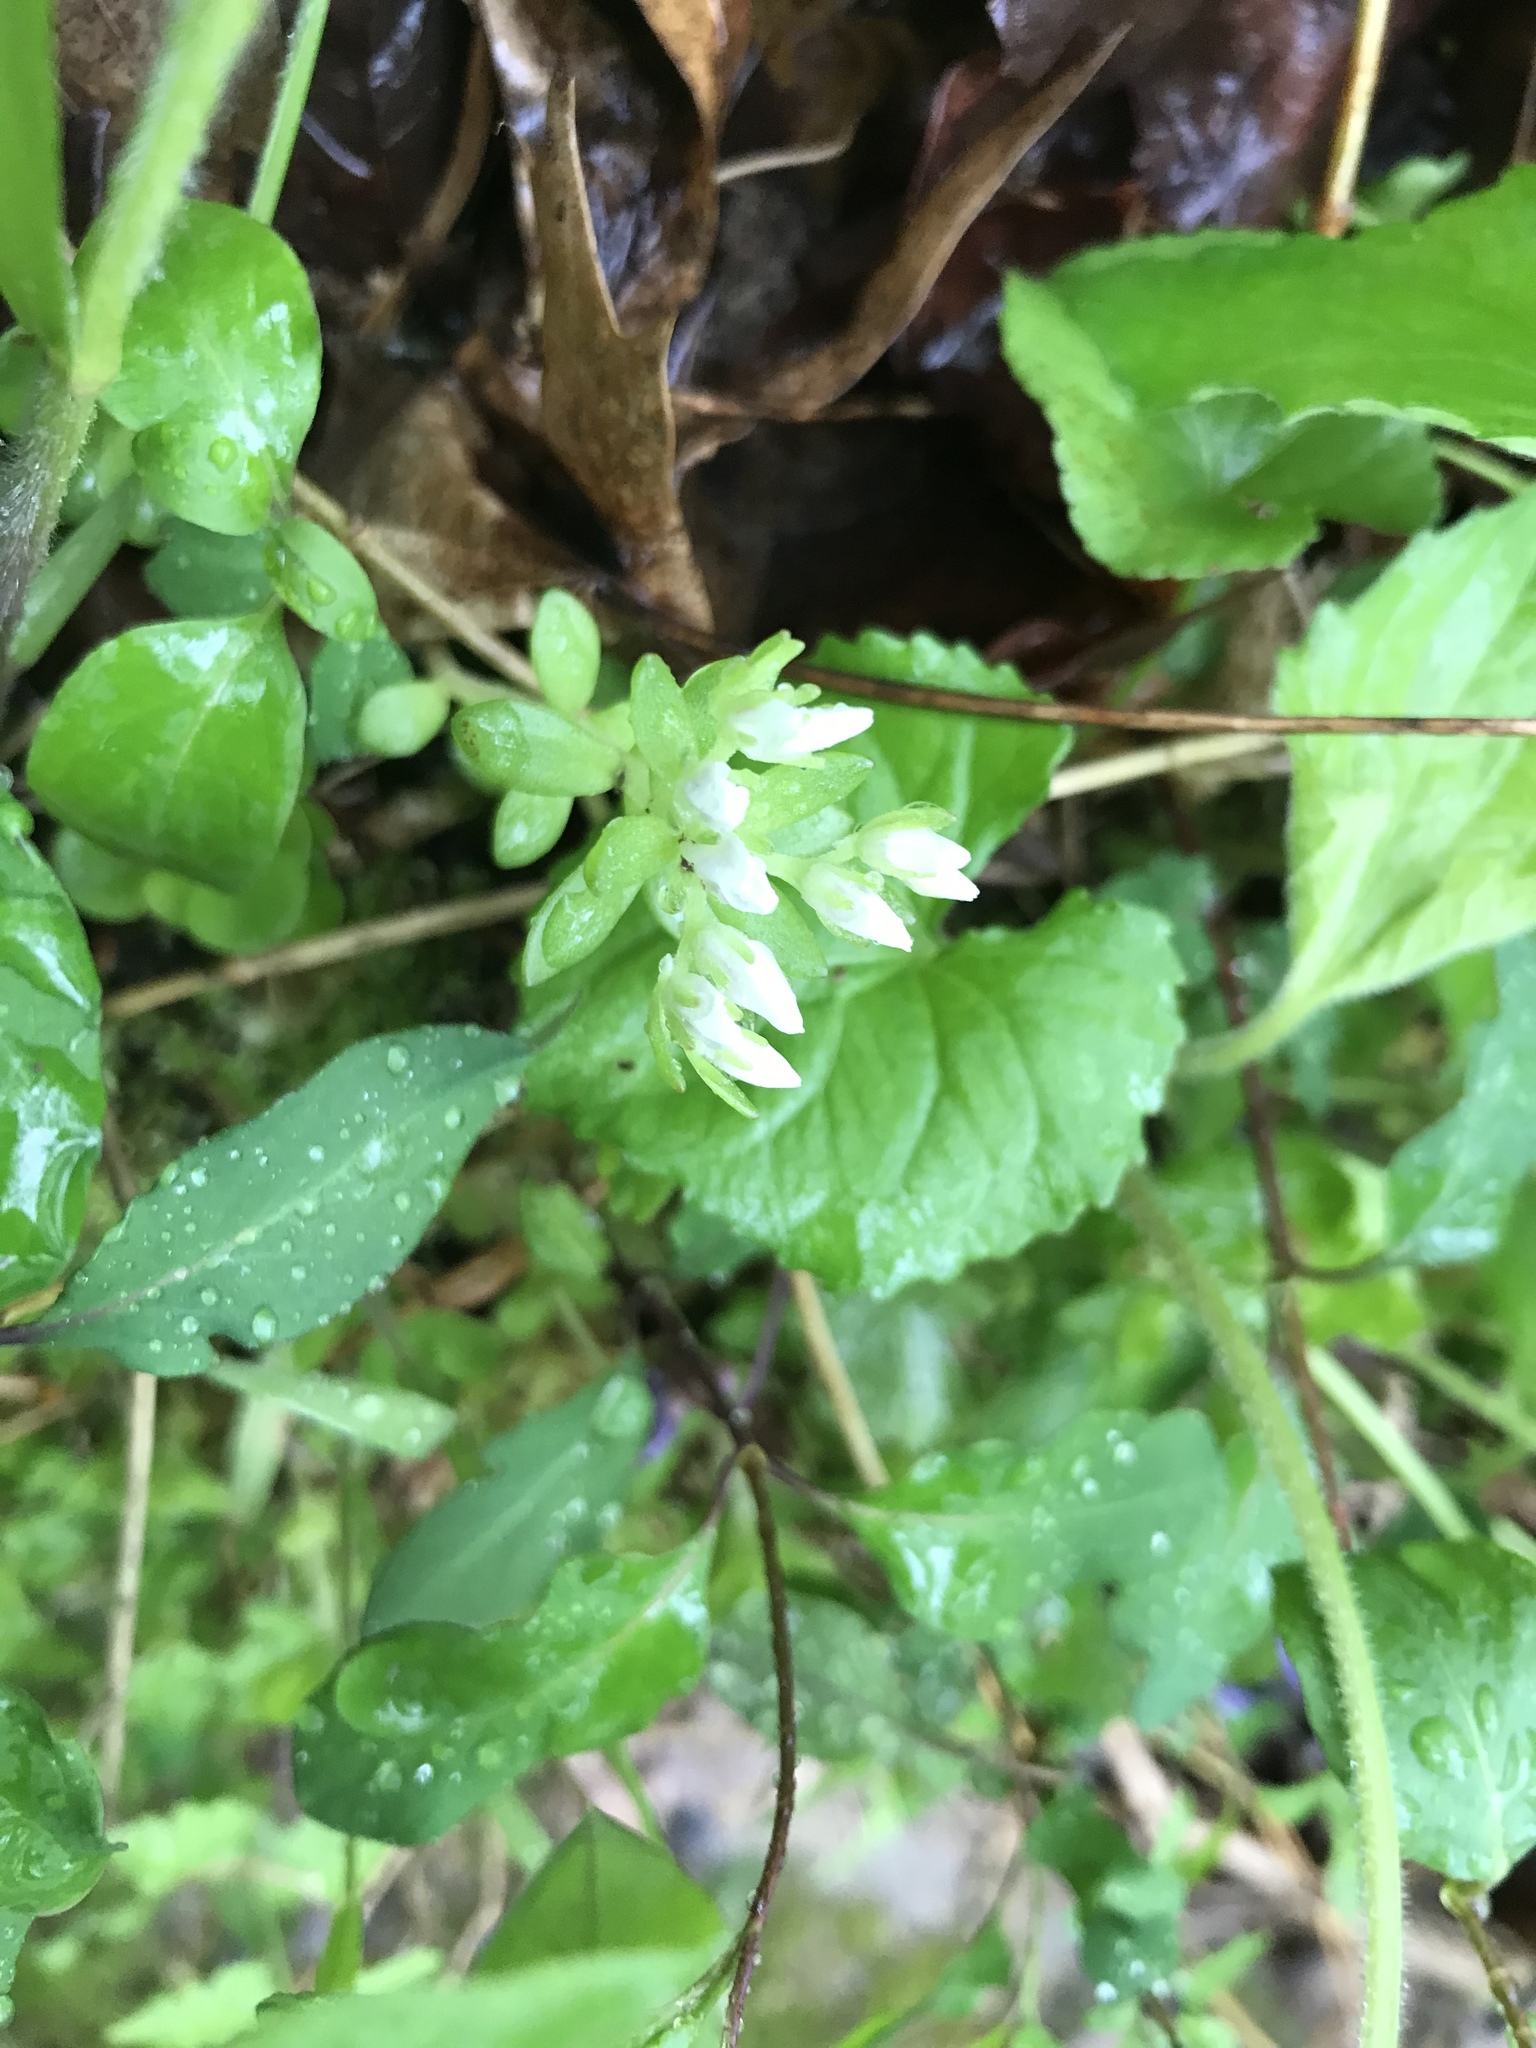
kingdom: Plantae
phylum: Tracheophyta
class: Magnoliopsida
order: Saxifragales
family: Crassulaceae
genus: Sedum
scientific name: Sedum ternatum
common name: Wild stonecrop
